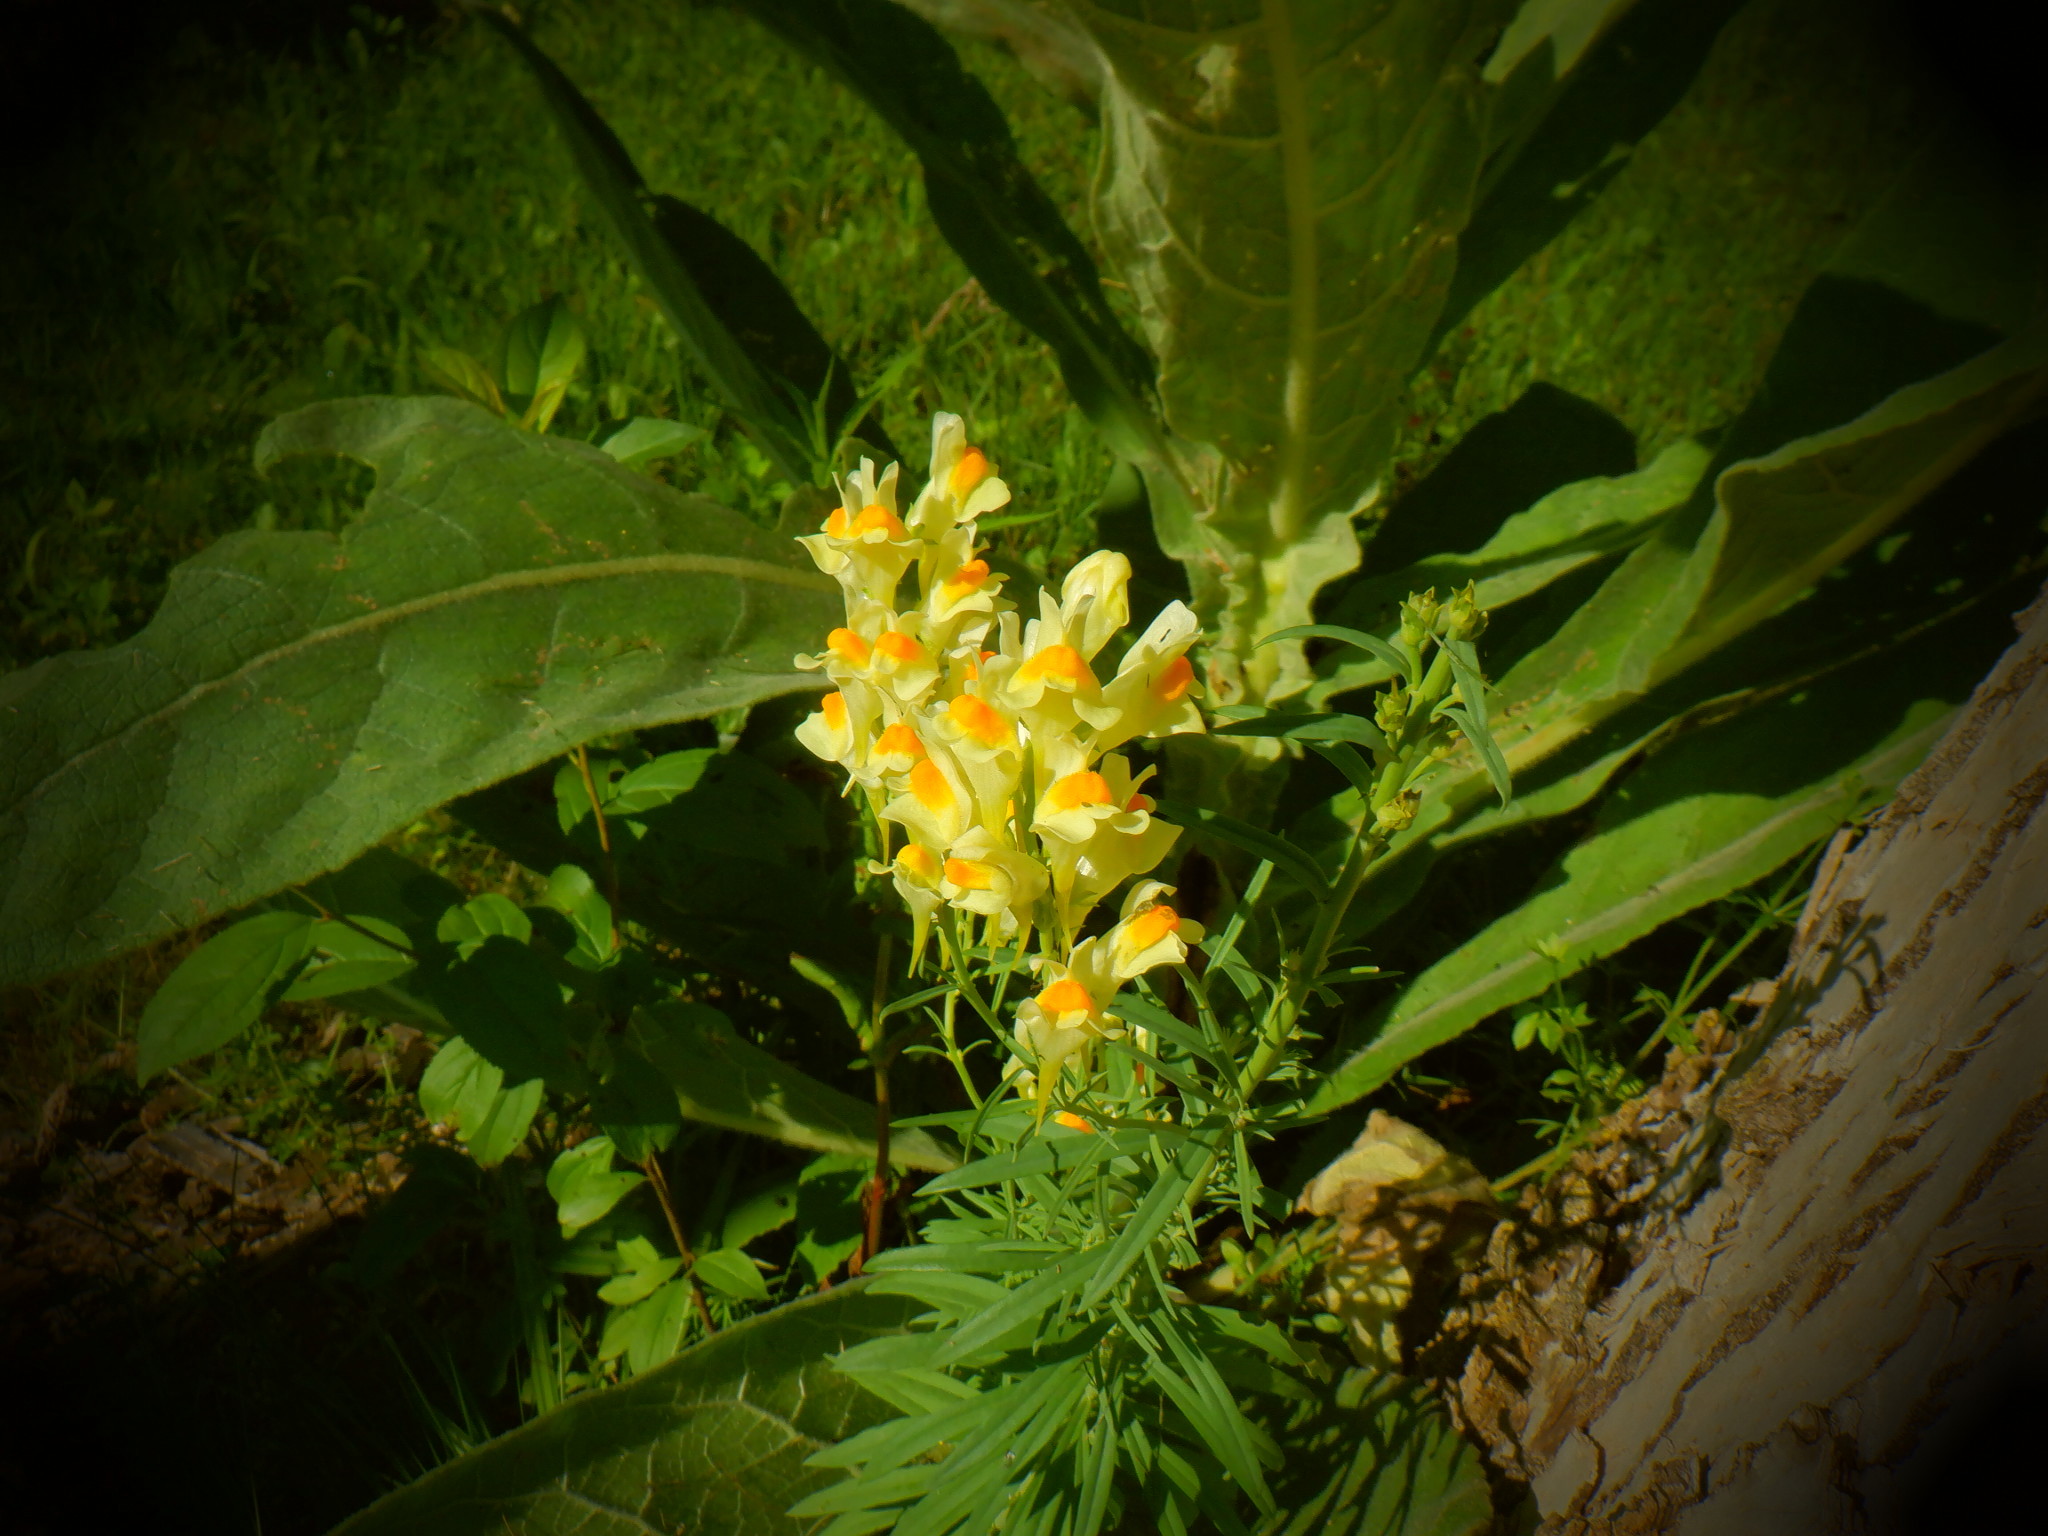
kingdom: Plantae
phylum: Tracheophyta
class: Magnoliopsida
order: Lamiales
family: Plantaginaceae
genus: Linaria
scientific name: Linaria vulgaris
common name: Butter and eggs
